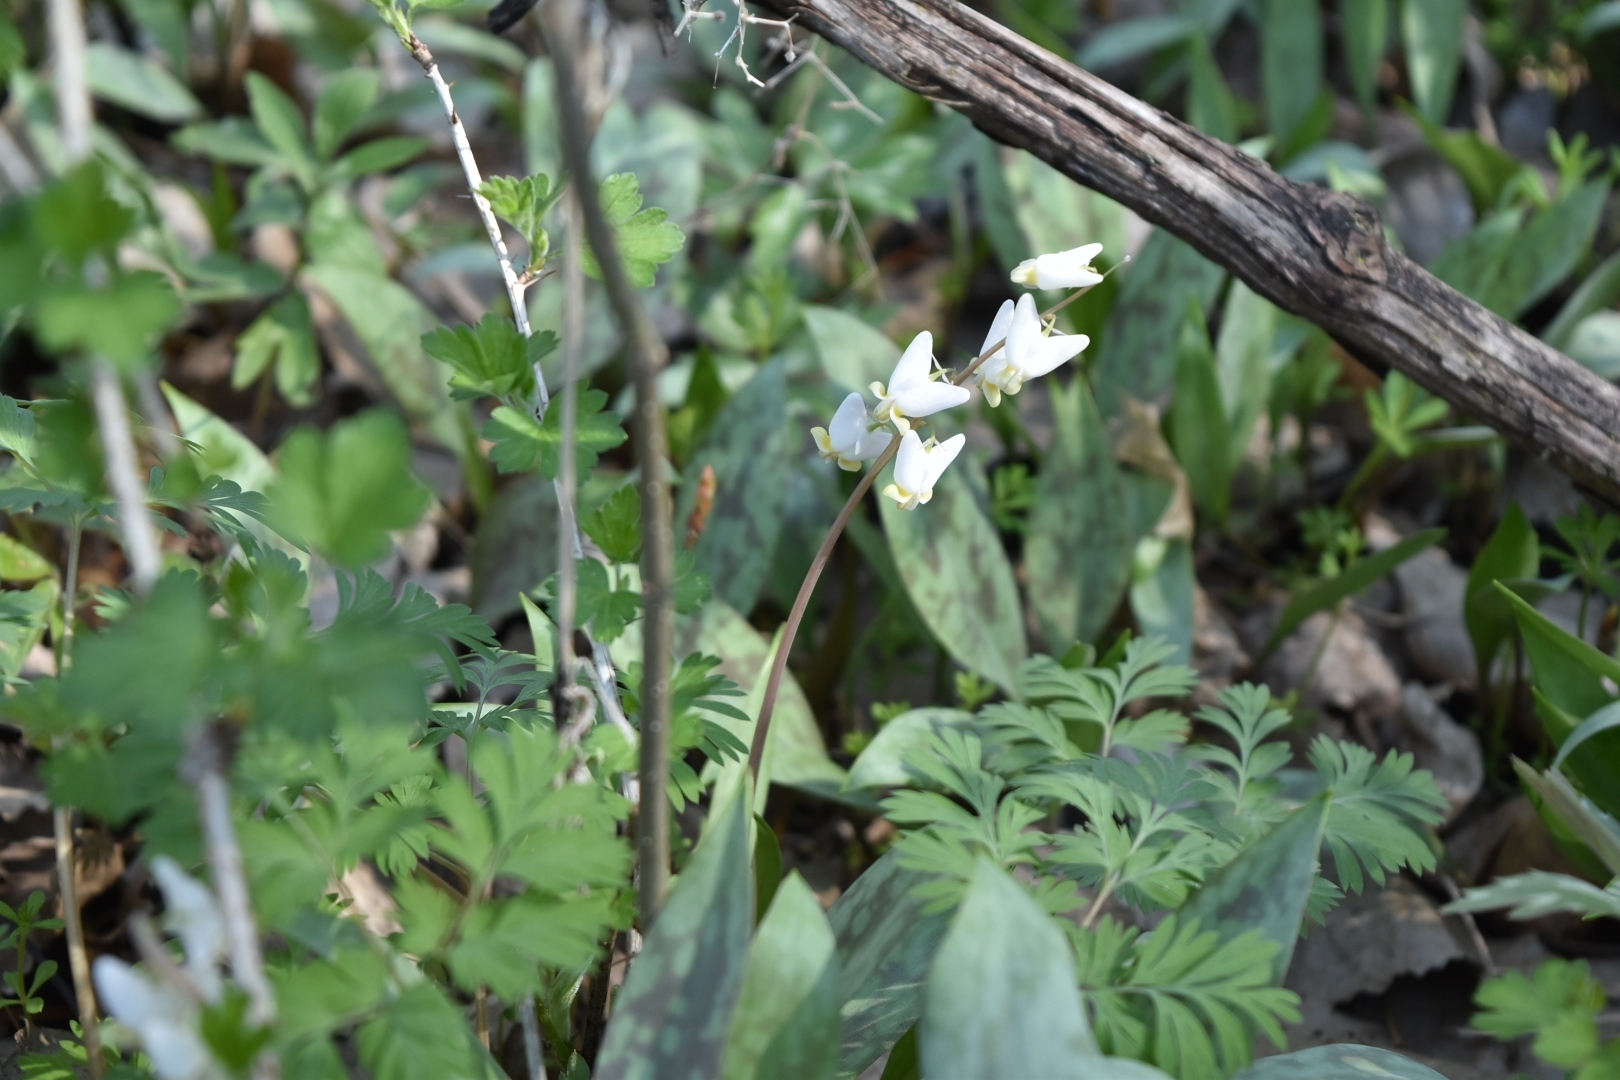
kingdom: Plantae
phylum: Tracheophyta
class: Magnoliopsida
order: Ranunculales
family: Papaveraceae
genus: Dicentra
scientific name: Dicentra cucullaria
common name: Dutchman's breeches
